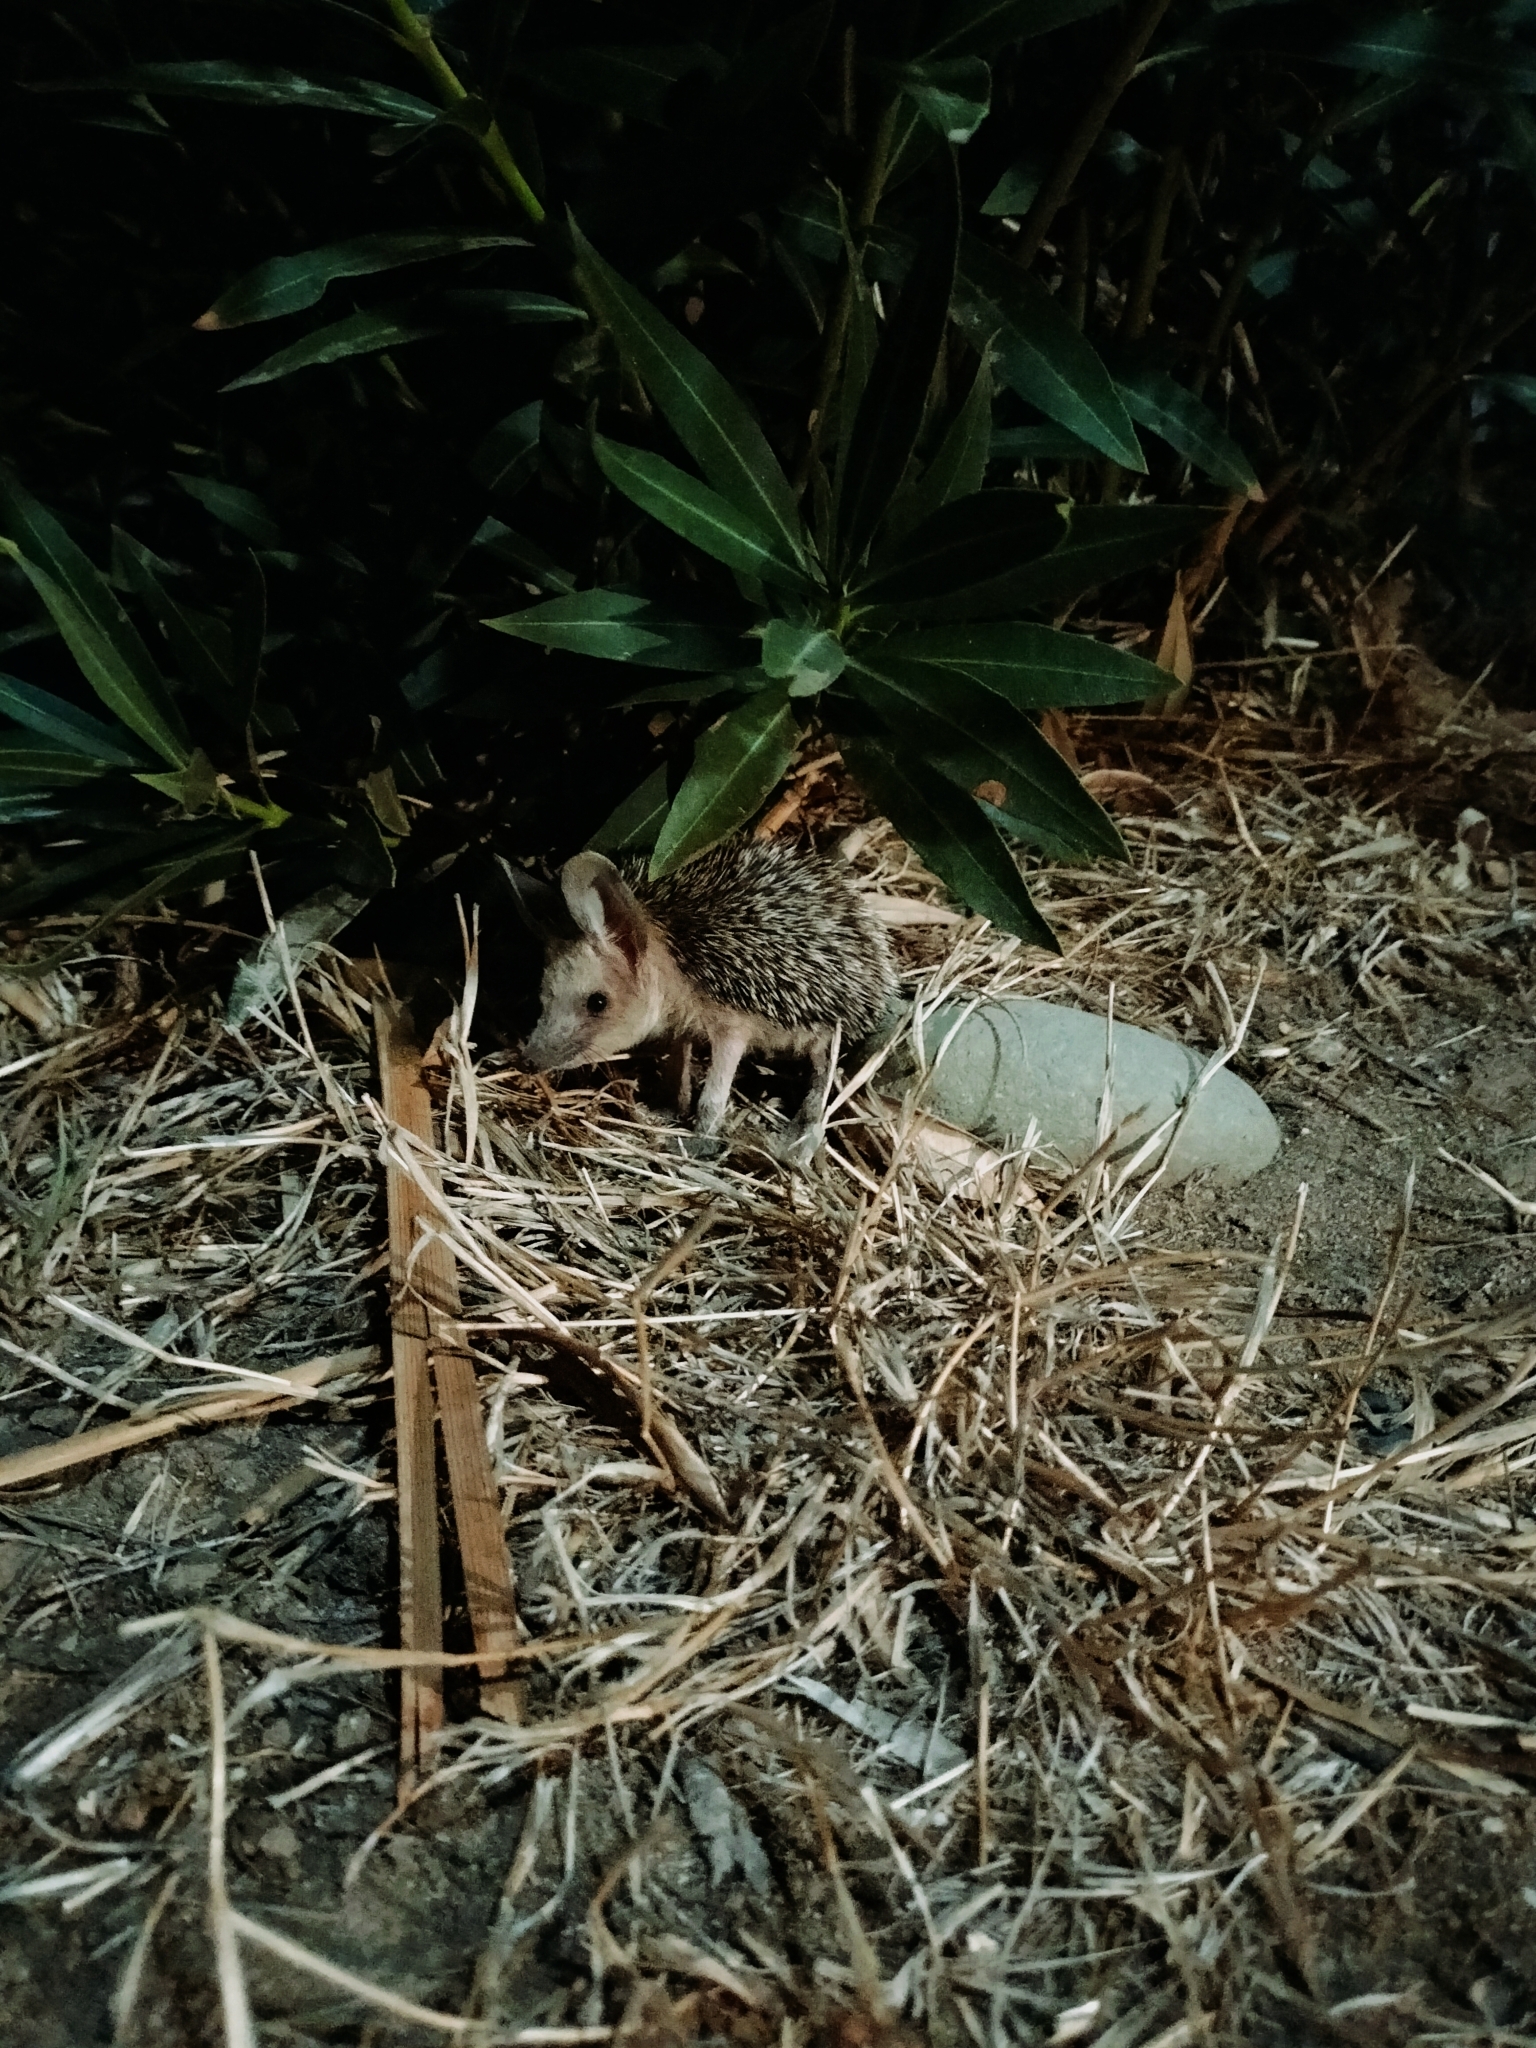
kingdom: Animalia
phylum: Chordata
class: Mammalia
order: Erinaceomorpha
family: Erinaceidae
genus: Hemiechinus
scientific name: Hemiechinus auritus
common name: Long-eared hedgehog
